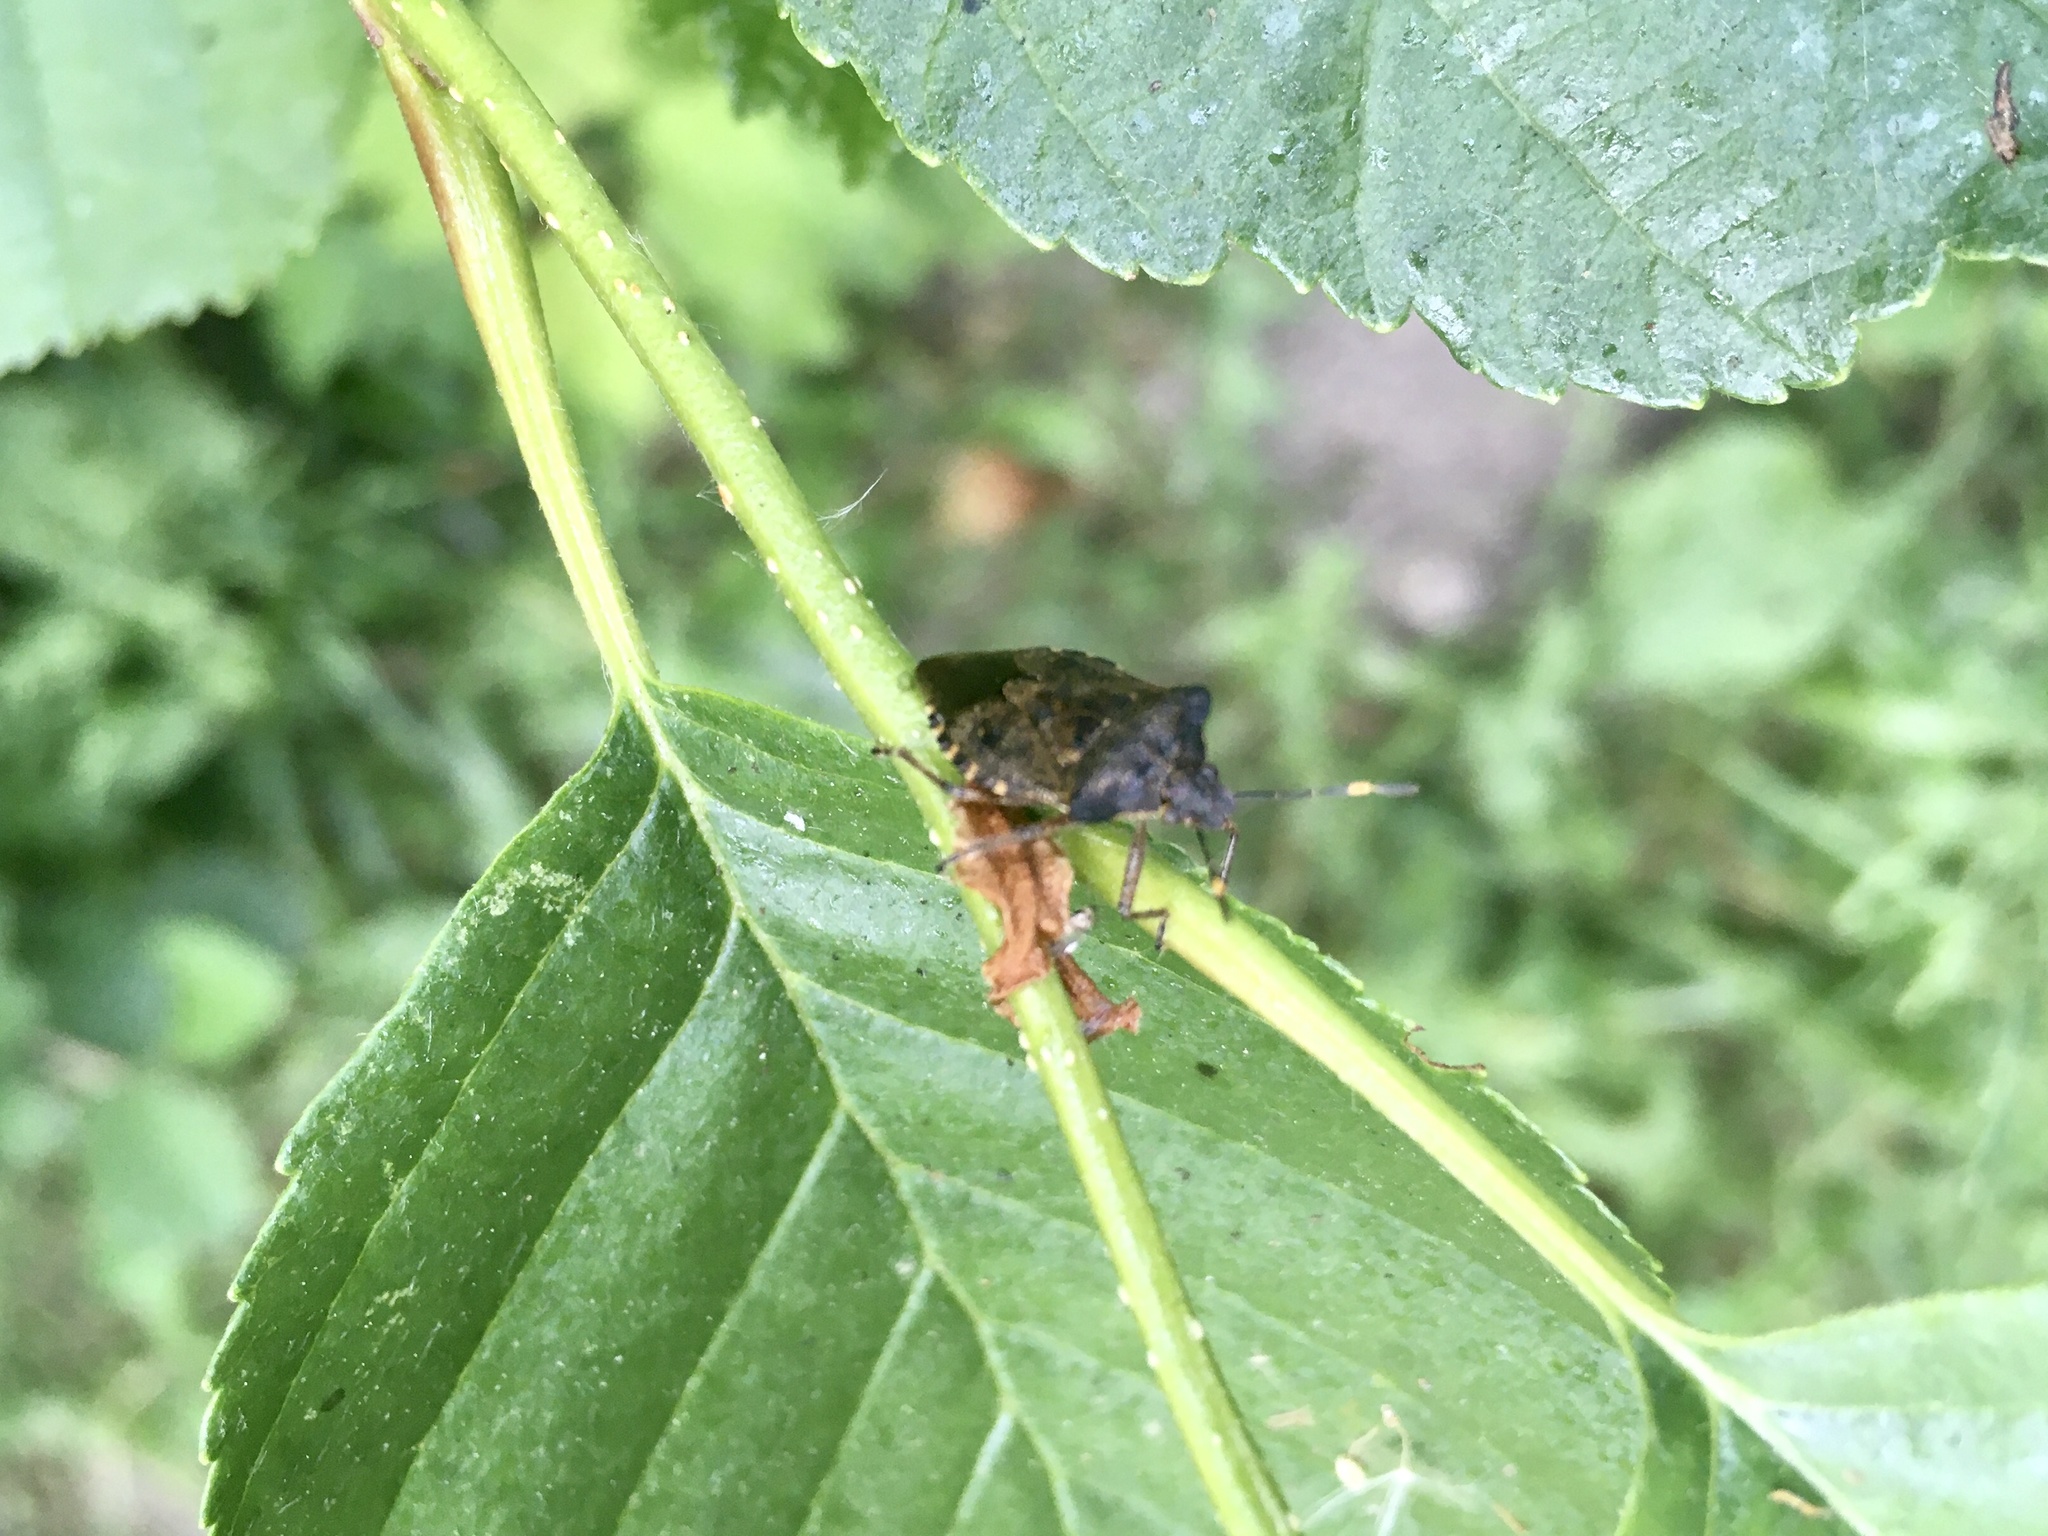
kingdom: Animalia
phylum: Arthropoda
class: Insecta
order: Hemiptera
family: Pentatomidae
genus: Troilus
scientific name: Troilus luridus
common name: Bronze shieldbug
